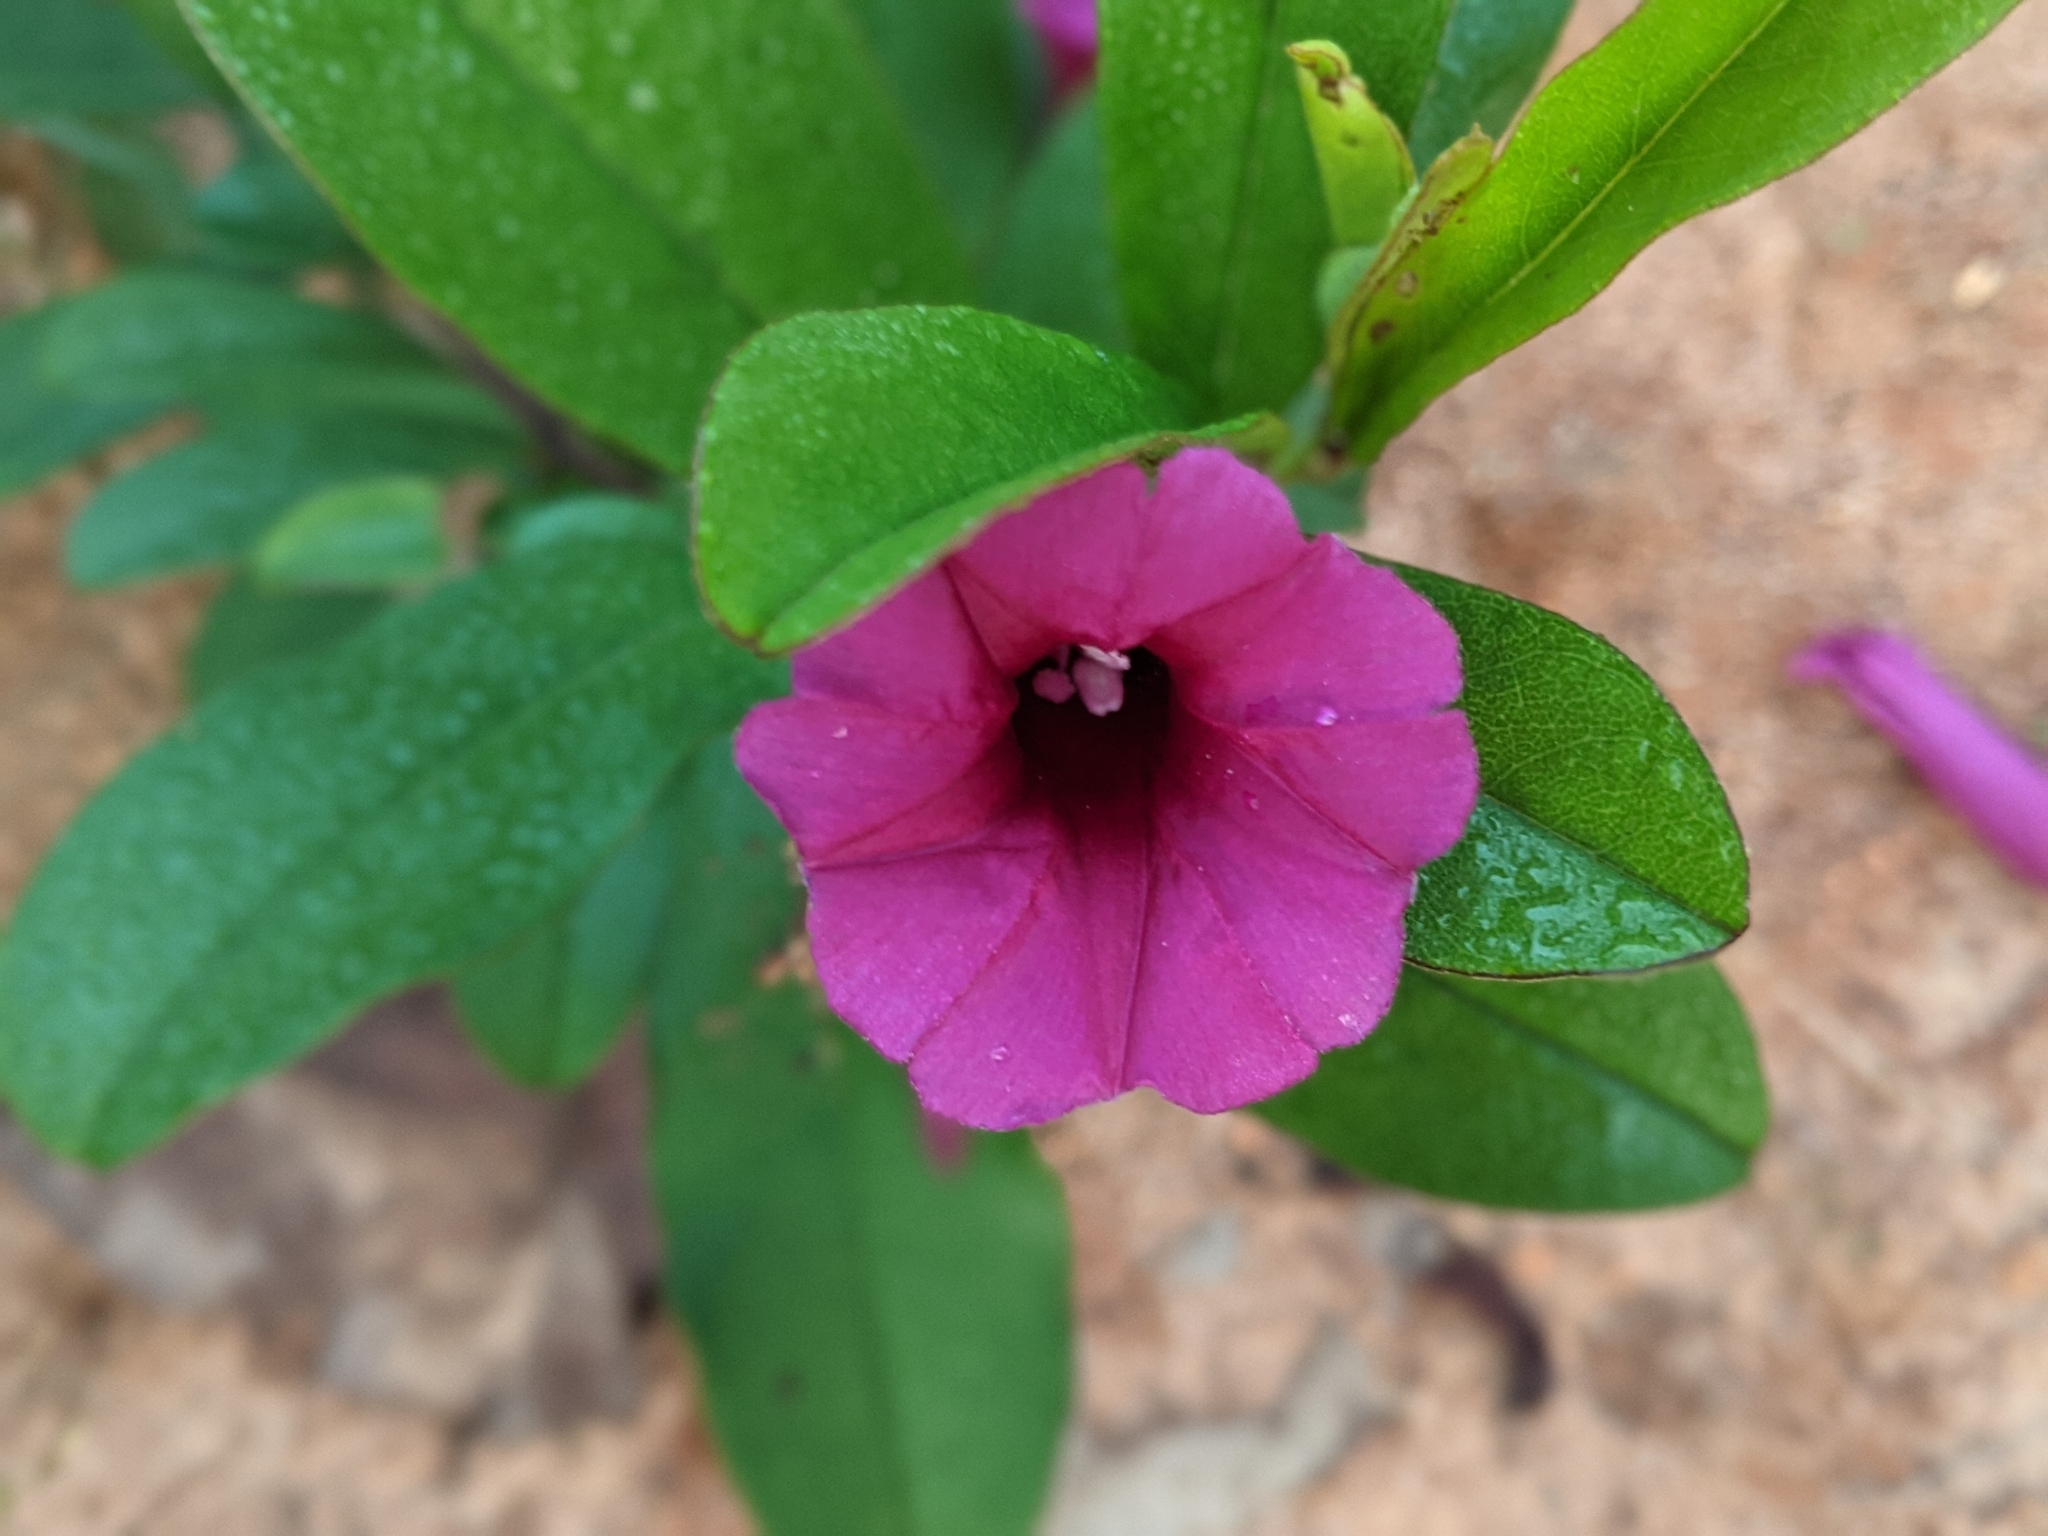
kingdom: Plantae
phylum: Tracheophyta
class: Magnoliopsida
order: Solanales
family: Convolvulaceae
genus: Argyreia
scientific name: Argyreia cuneata
